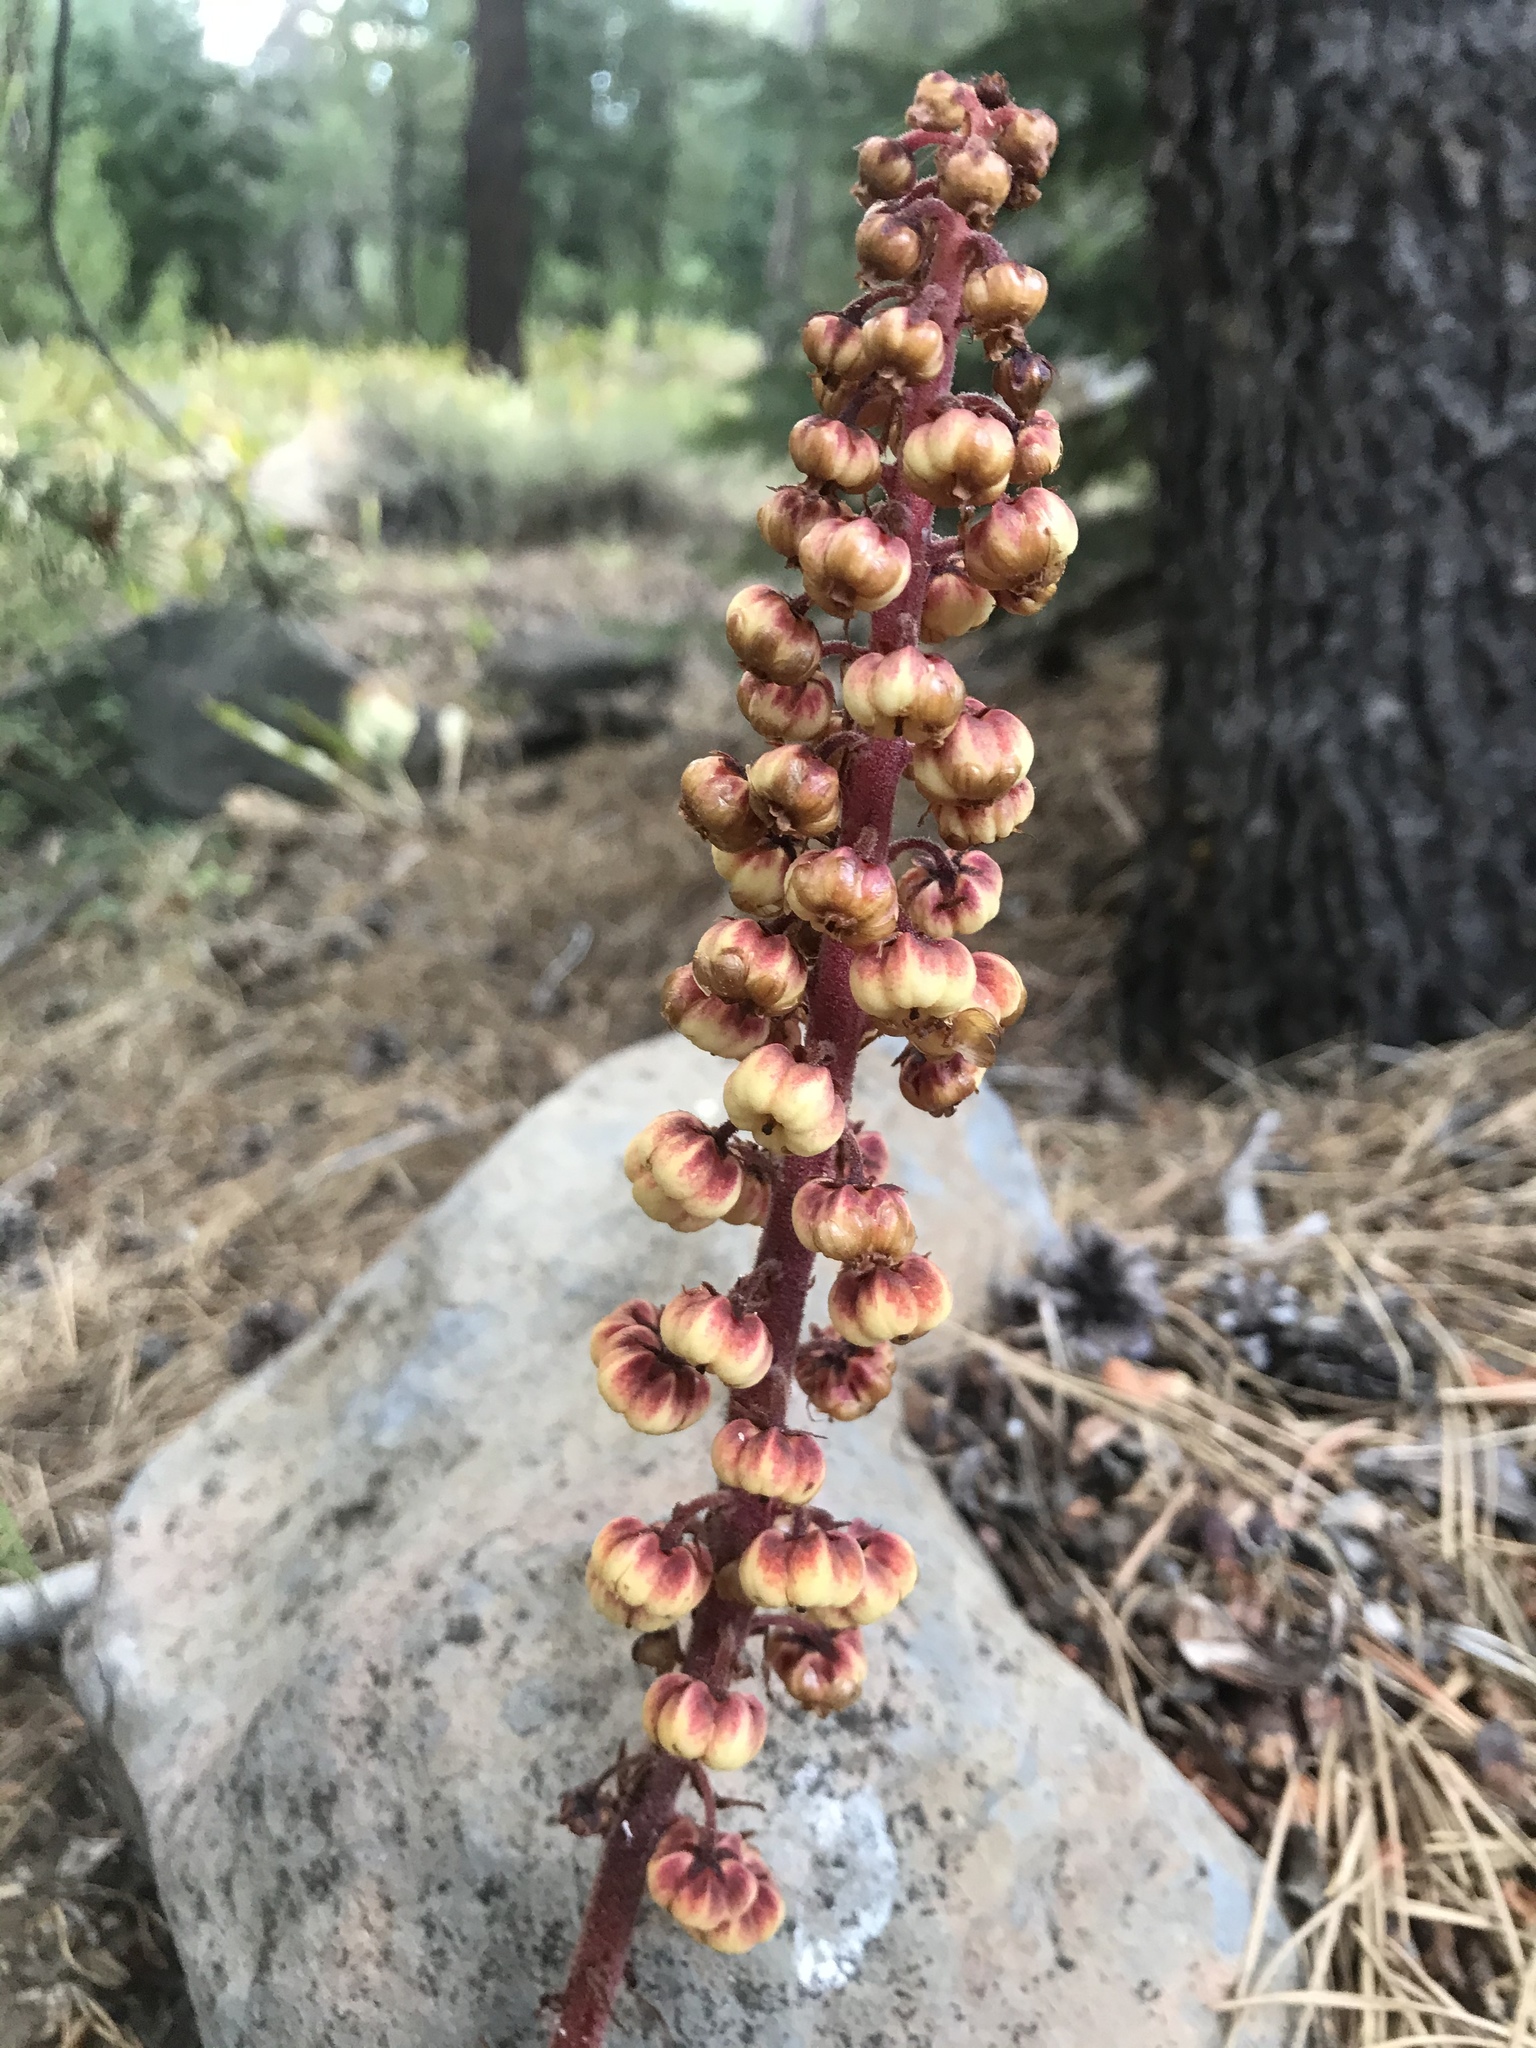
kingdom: Plantae
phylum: Tracheophyta
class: Magnoliopsida
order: Ericales
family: Ericaceae
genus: Pterospora
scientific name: Pterospora andromedea
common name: Giant bird's-nest
